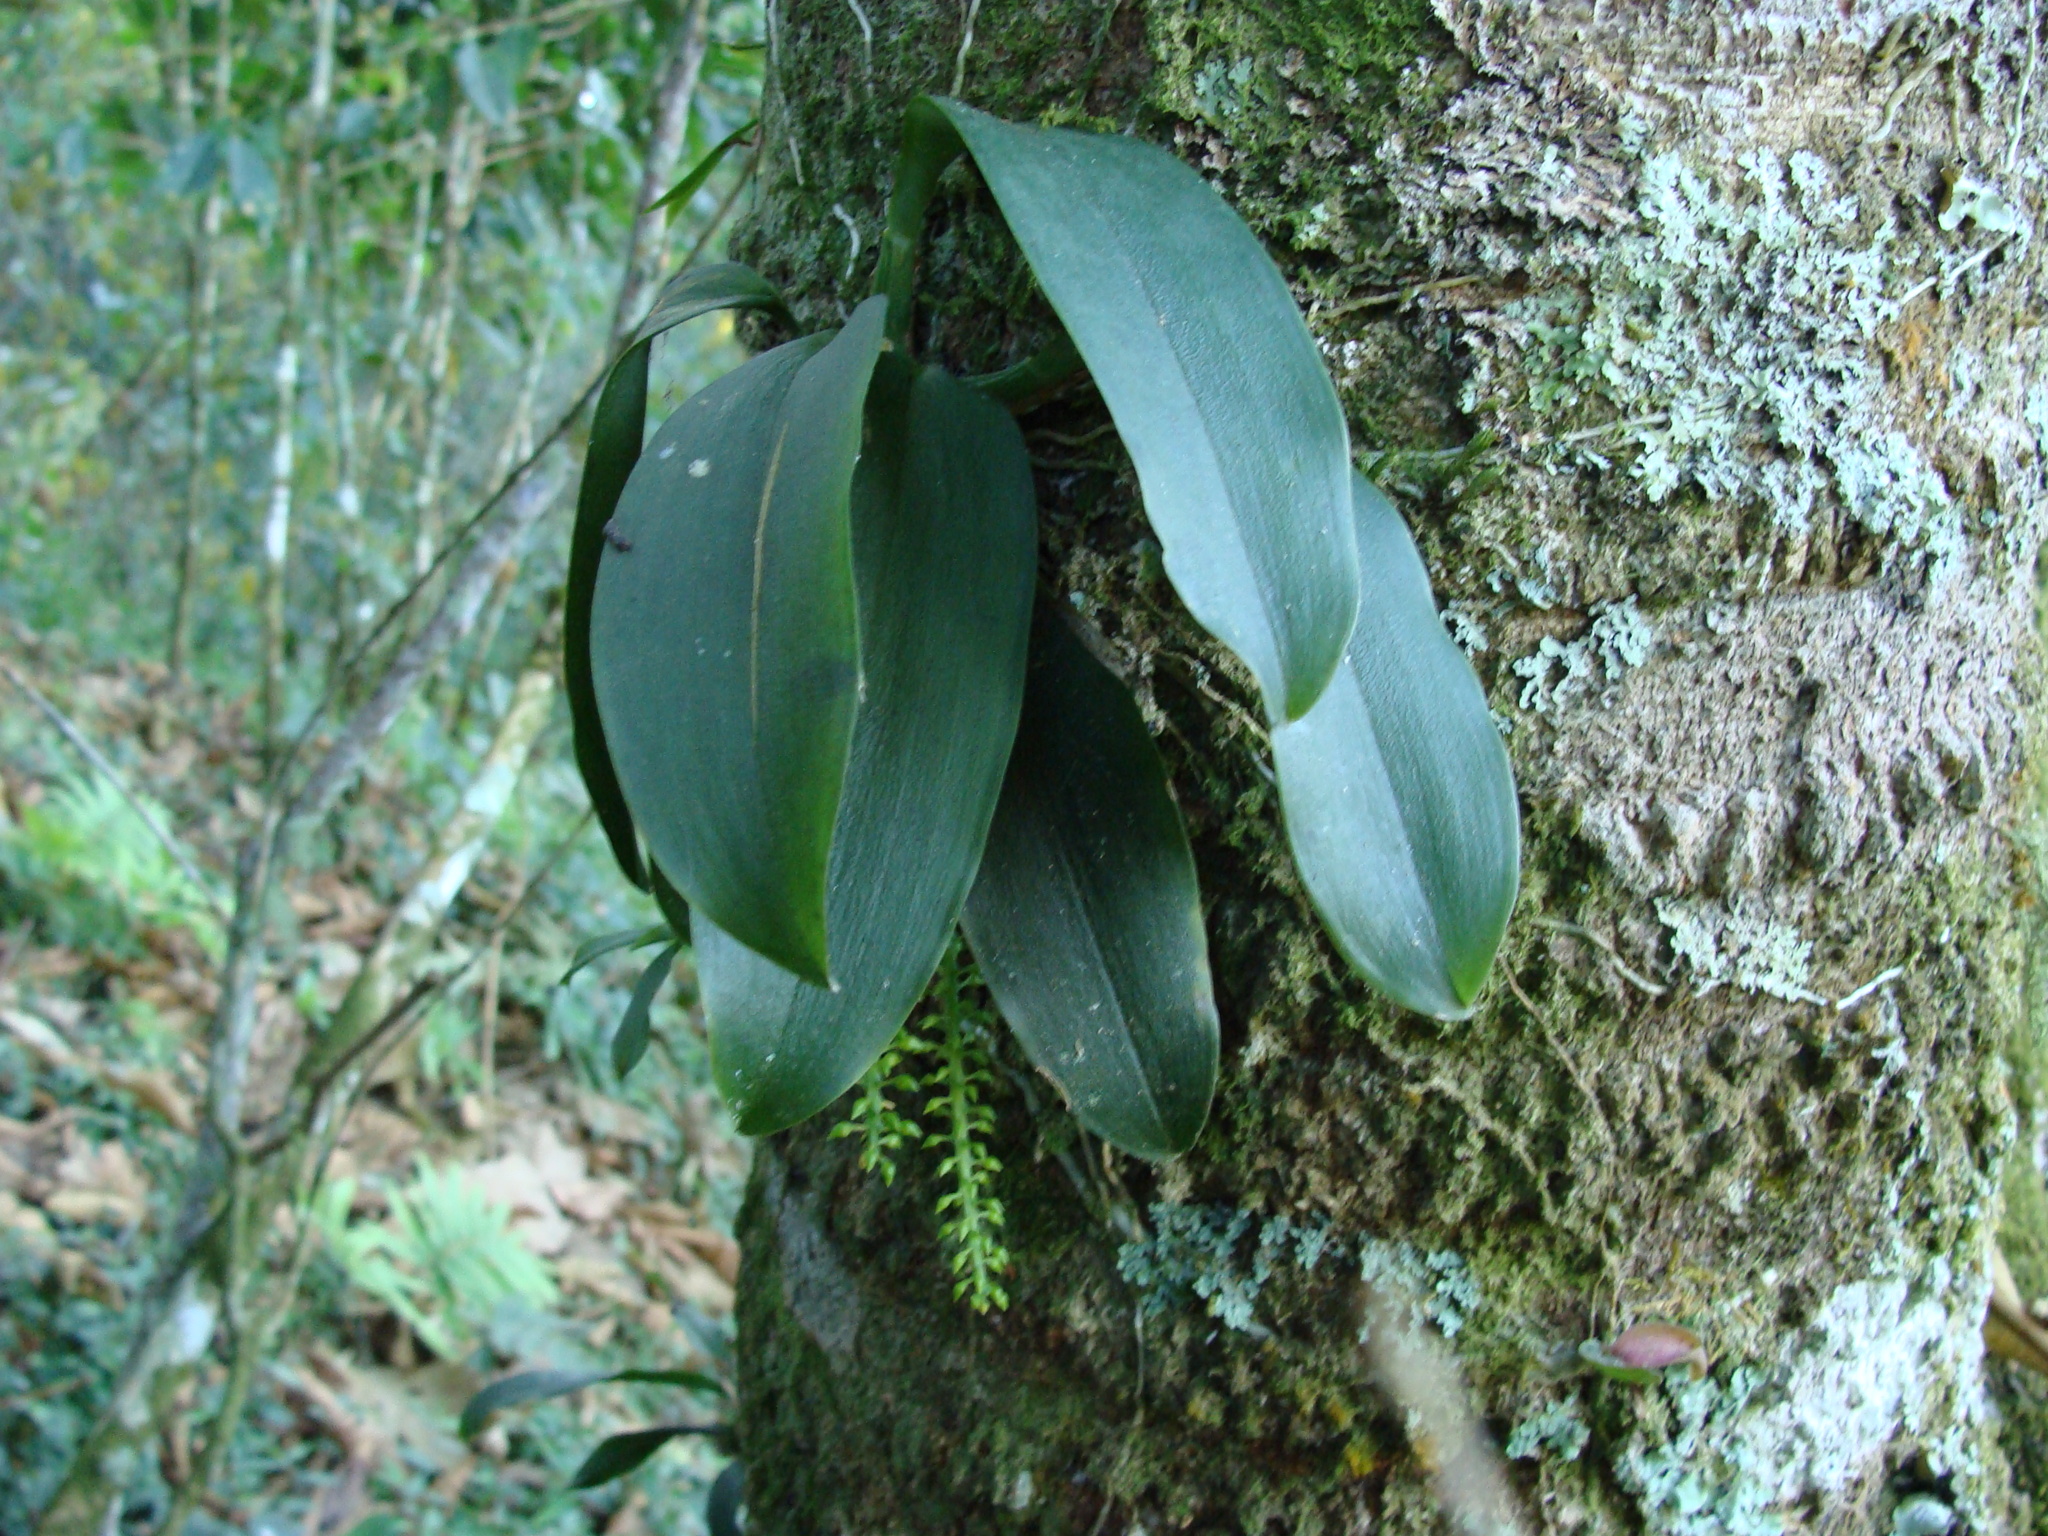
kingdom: Plantae
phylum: Tracheophyta
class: Liliopsida
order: Asparagales
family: Orchidaceae
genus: Notylia
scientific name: Notylia barkeri
